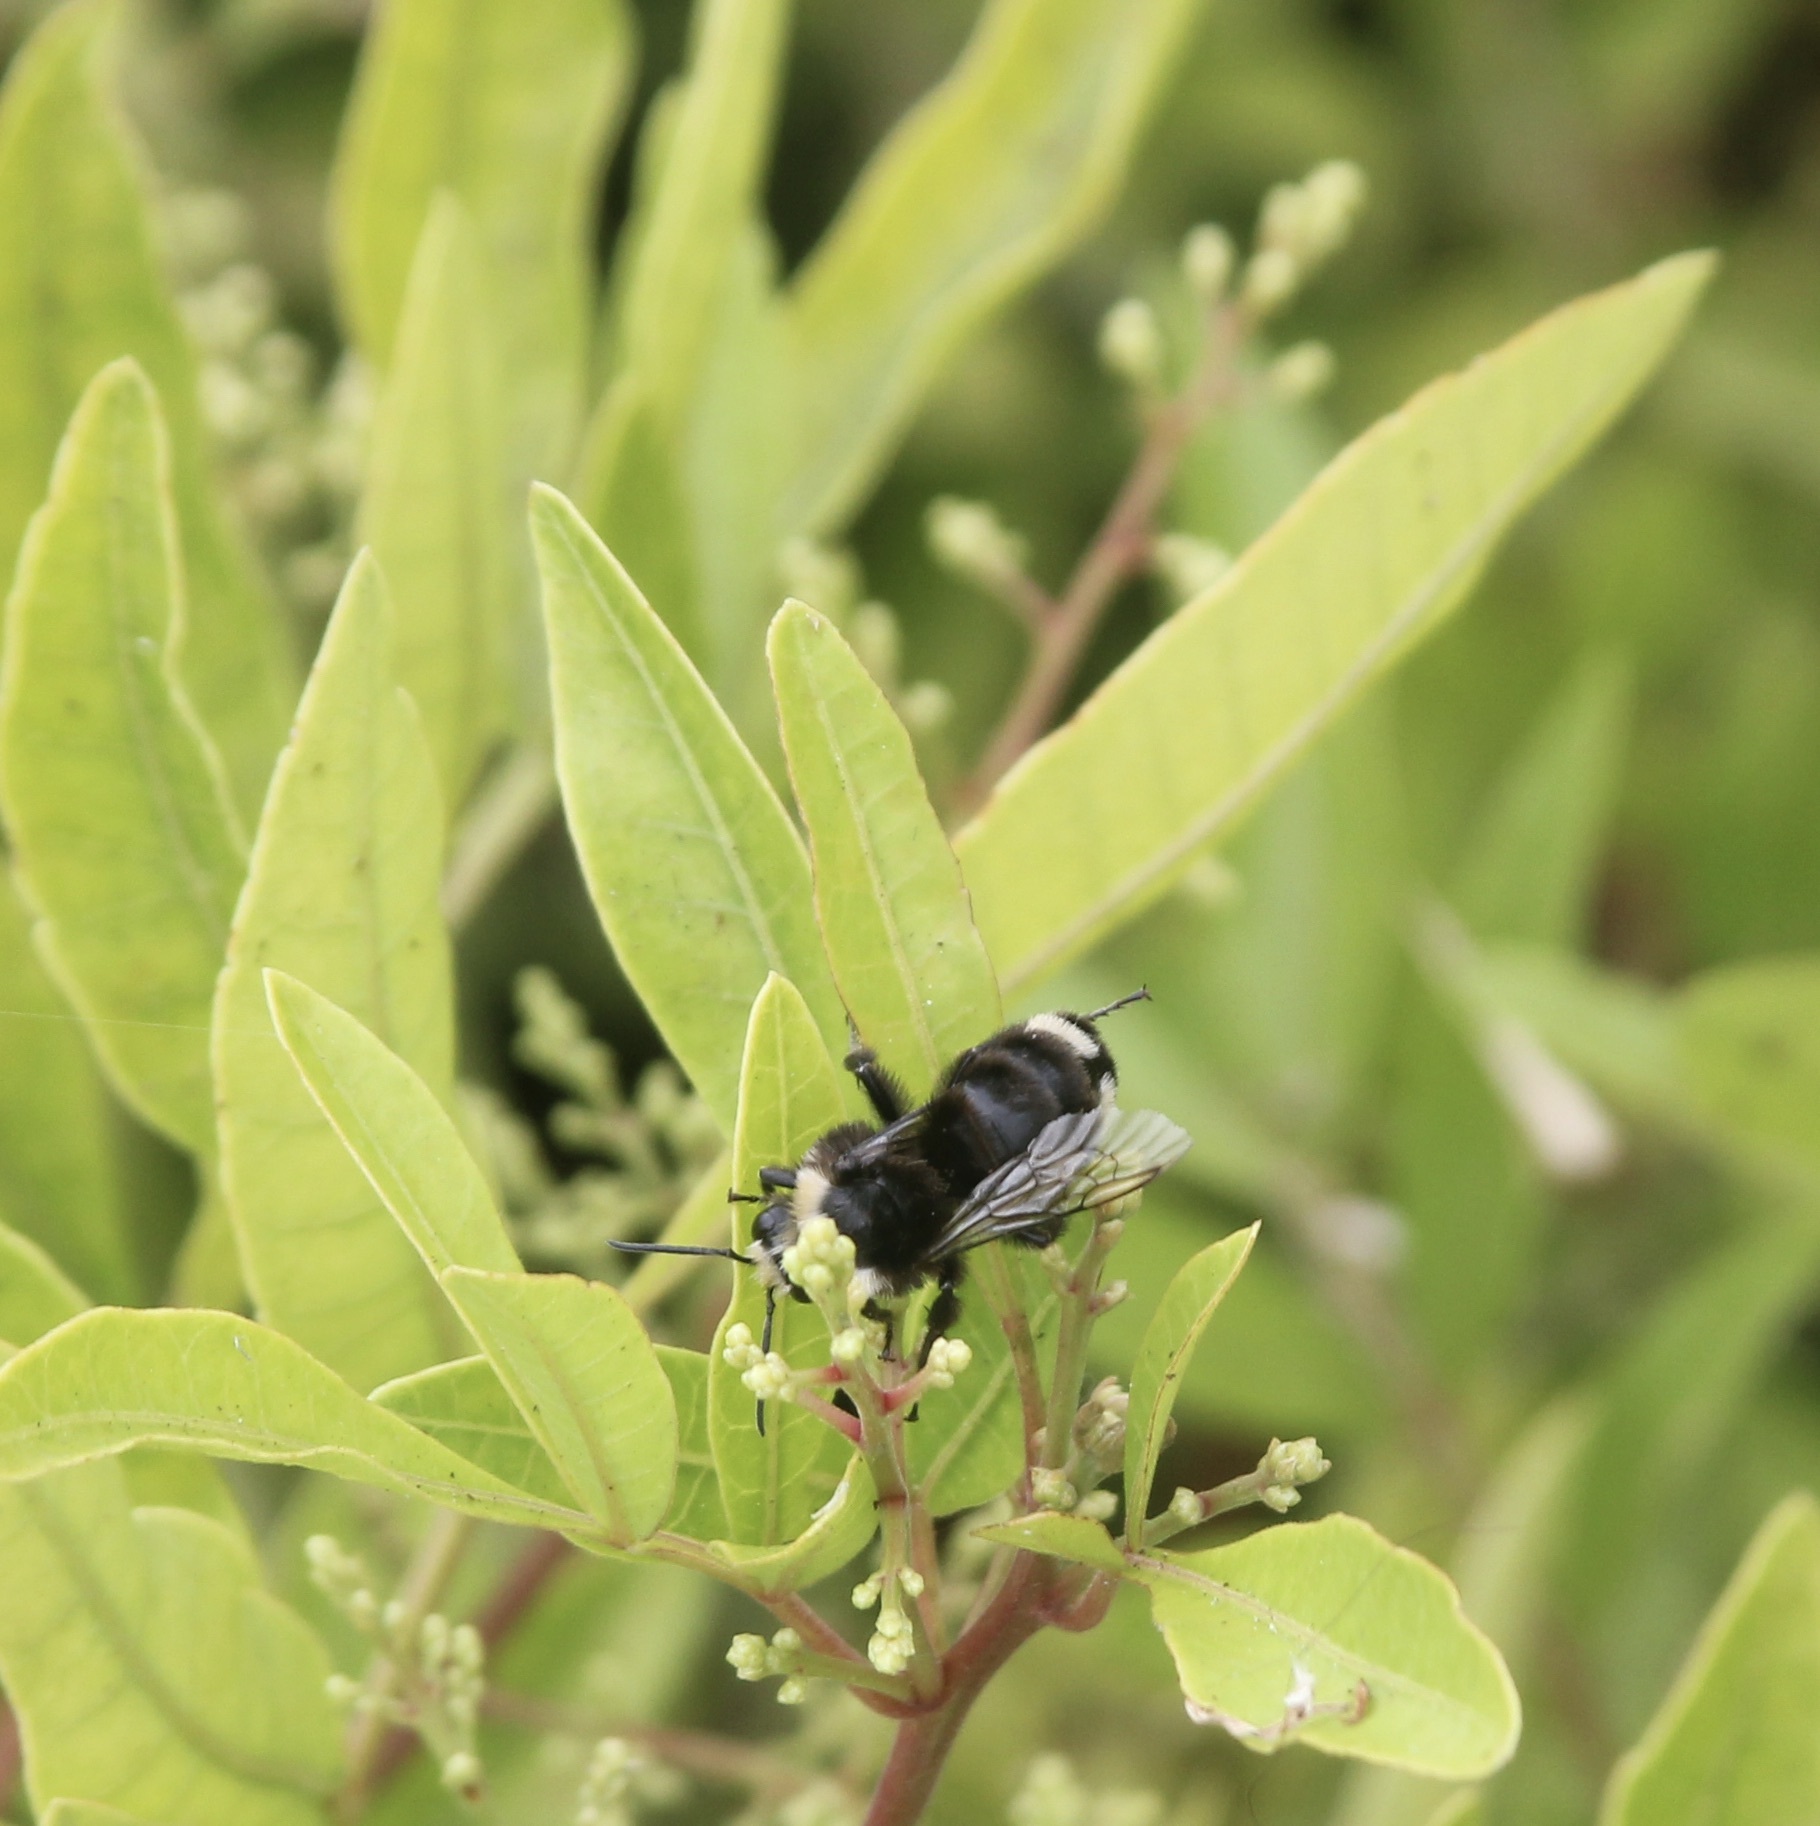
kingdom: Animalia
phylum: Arthropoda
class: Insecta
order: Hymenoptera
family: Apidae
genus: Bombus
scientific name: Bombus vosnesenskii
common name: Vosnesensky bumble bee
